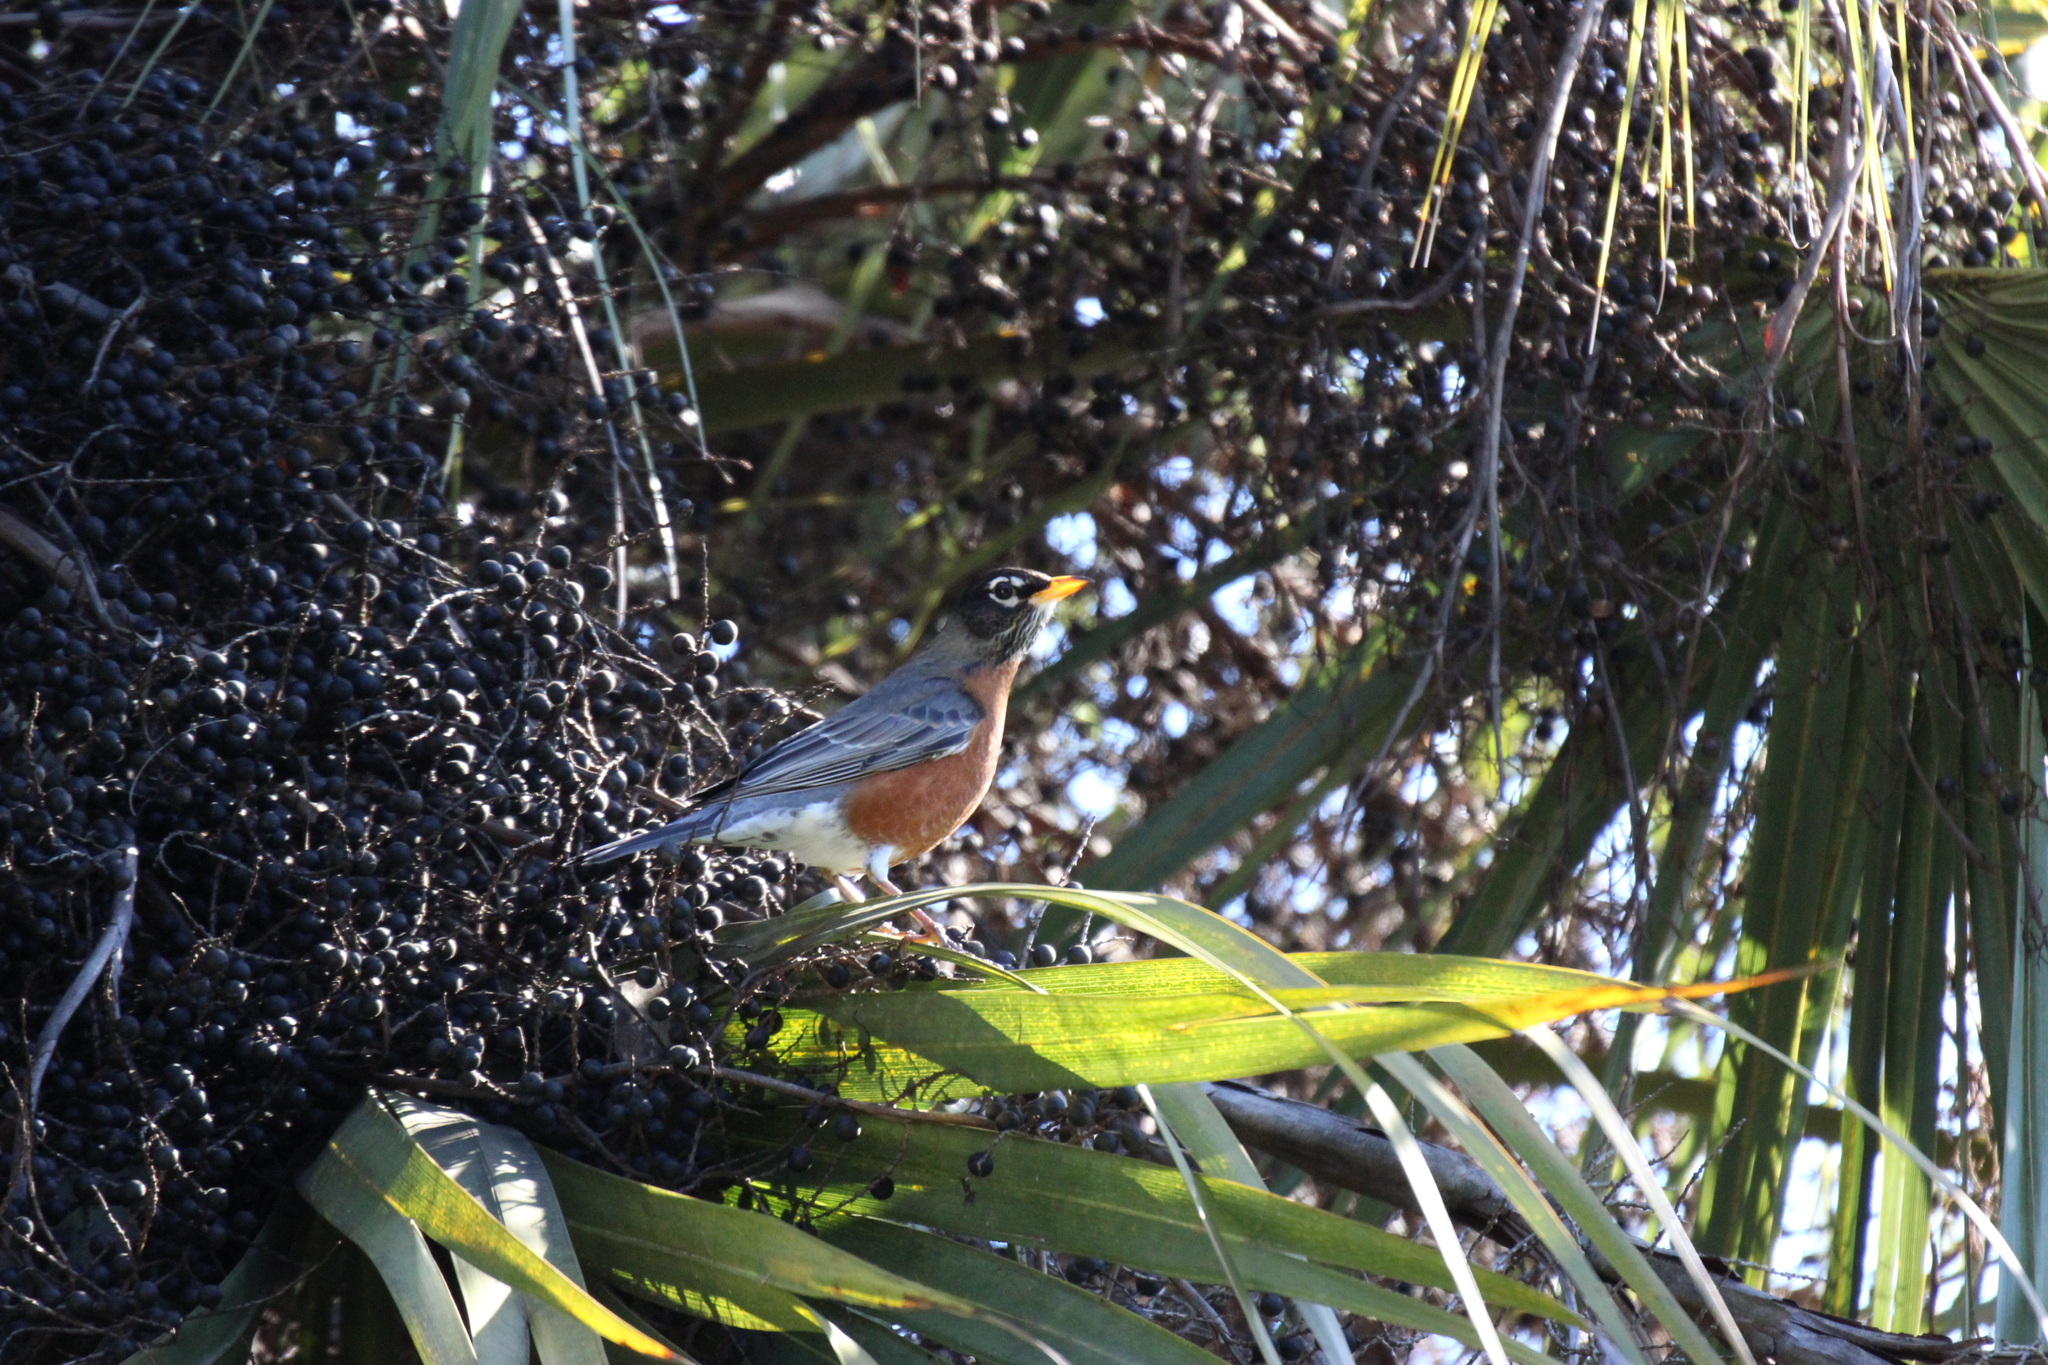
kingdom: Animalia
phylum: Chordata
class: Aves
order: Passeriformes
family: Turdidae
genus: Turdus
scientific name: Turdus migratorius
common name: American robin
